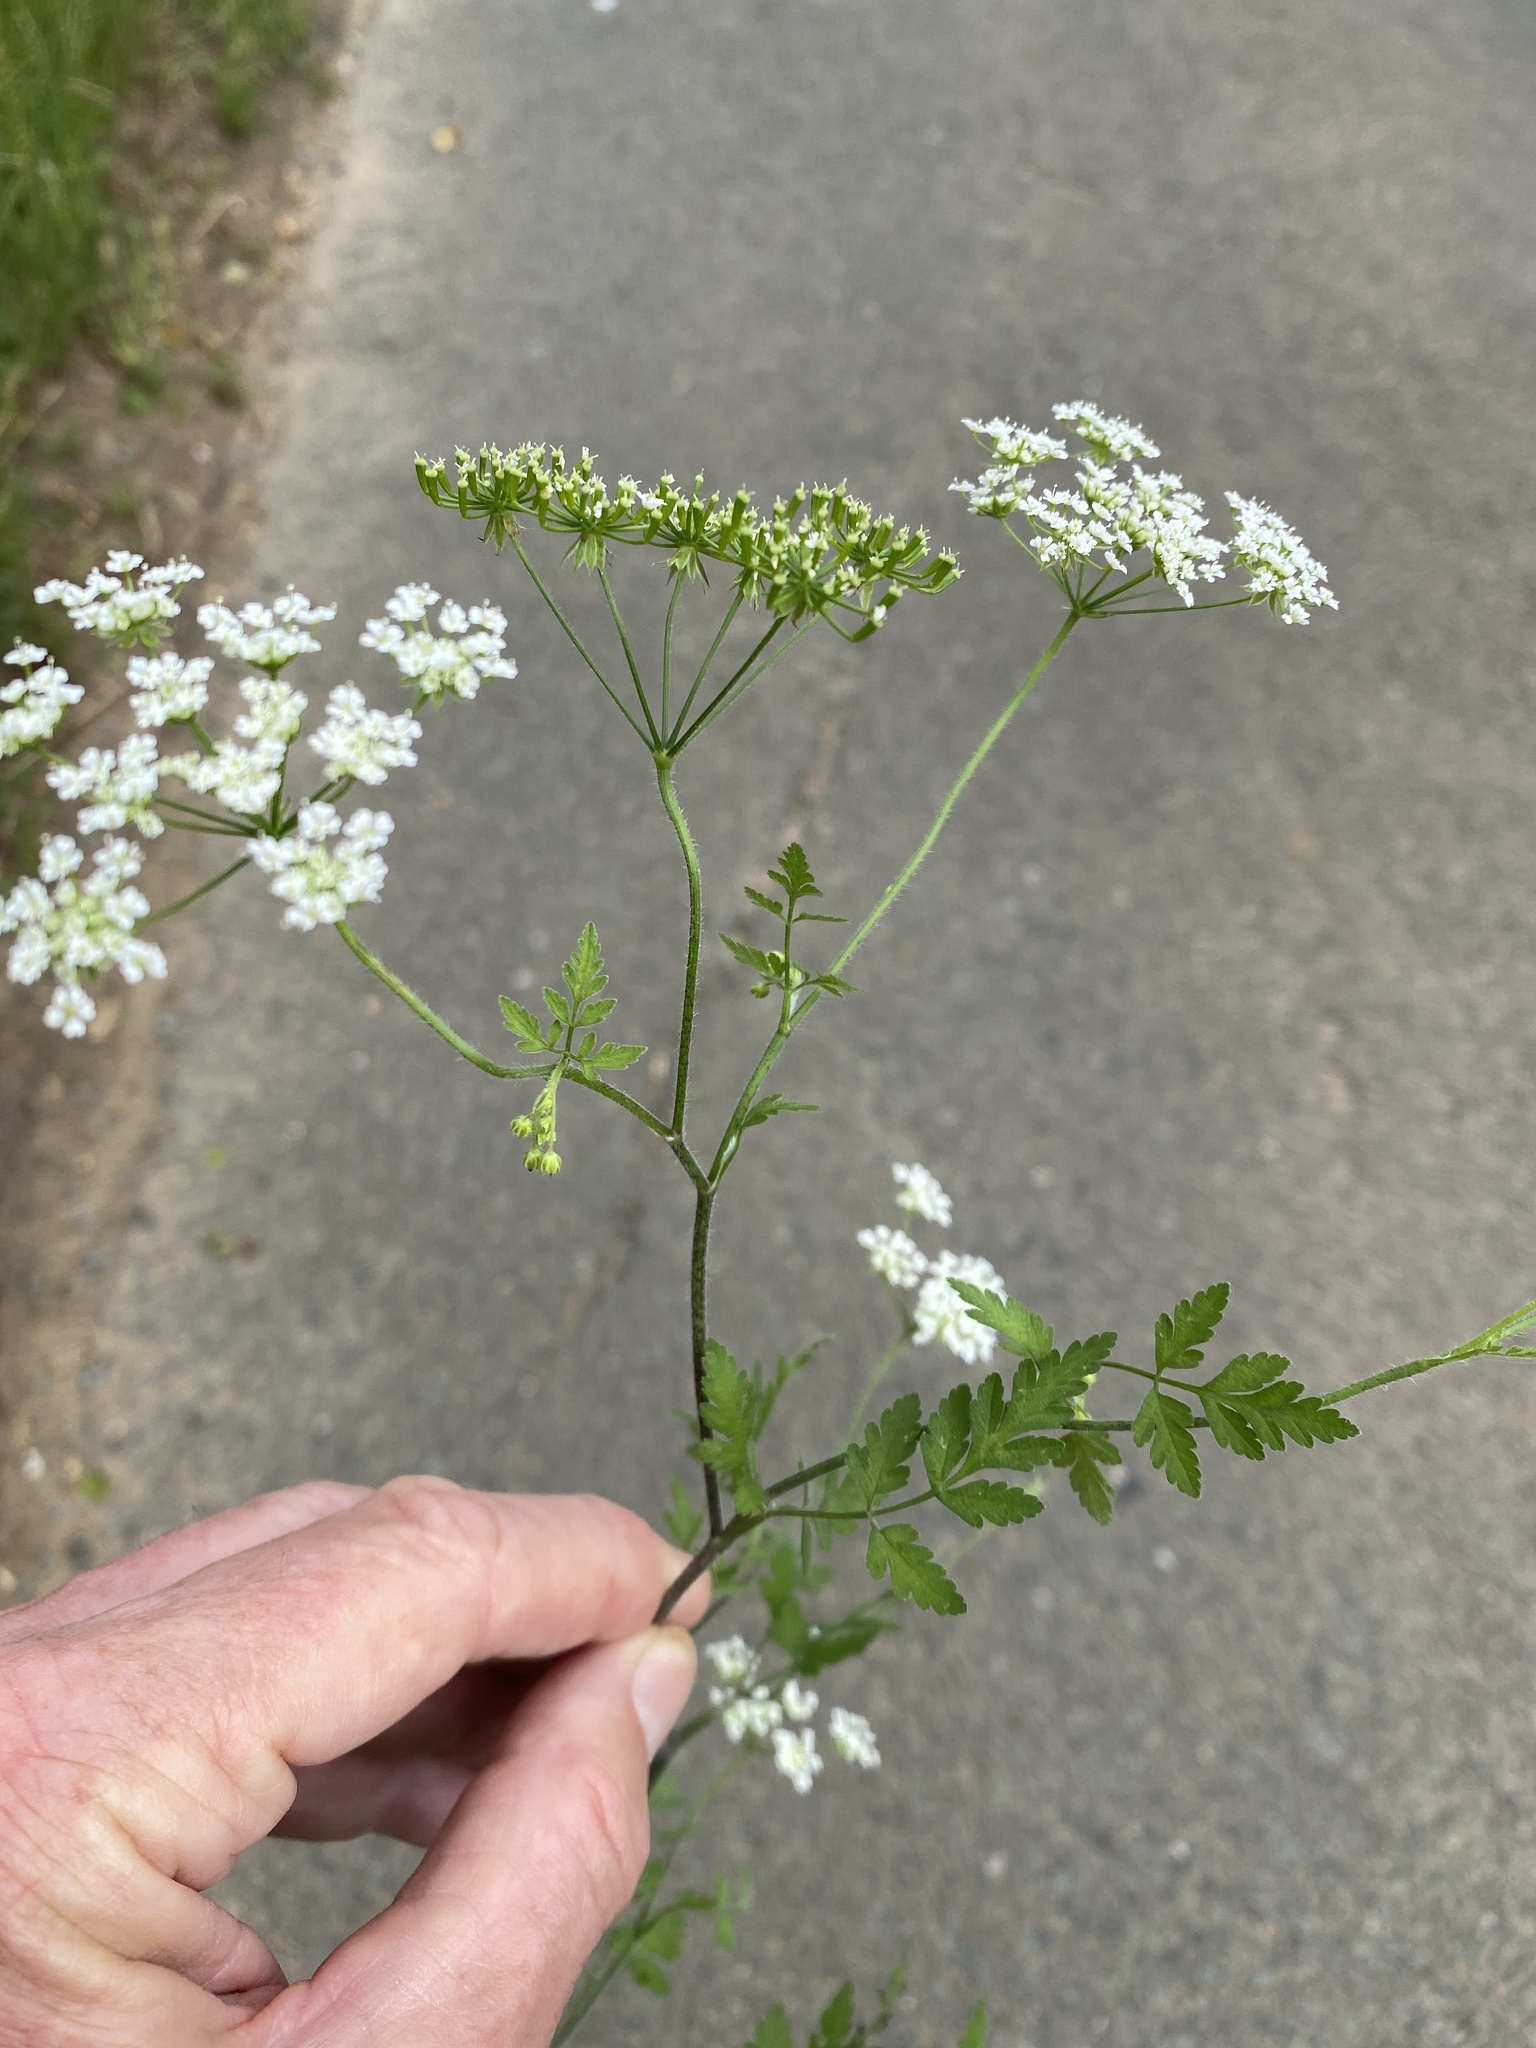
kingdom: Plantae
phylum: Tracheophyta
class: Magnoliopsida
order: Apiales
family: Apiaceae
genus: Chaerophyllum
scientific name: Chaerophyllum temulum
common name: Rough chervil
